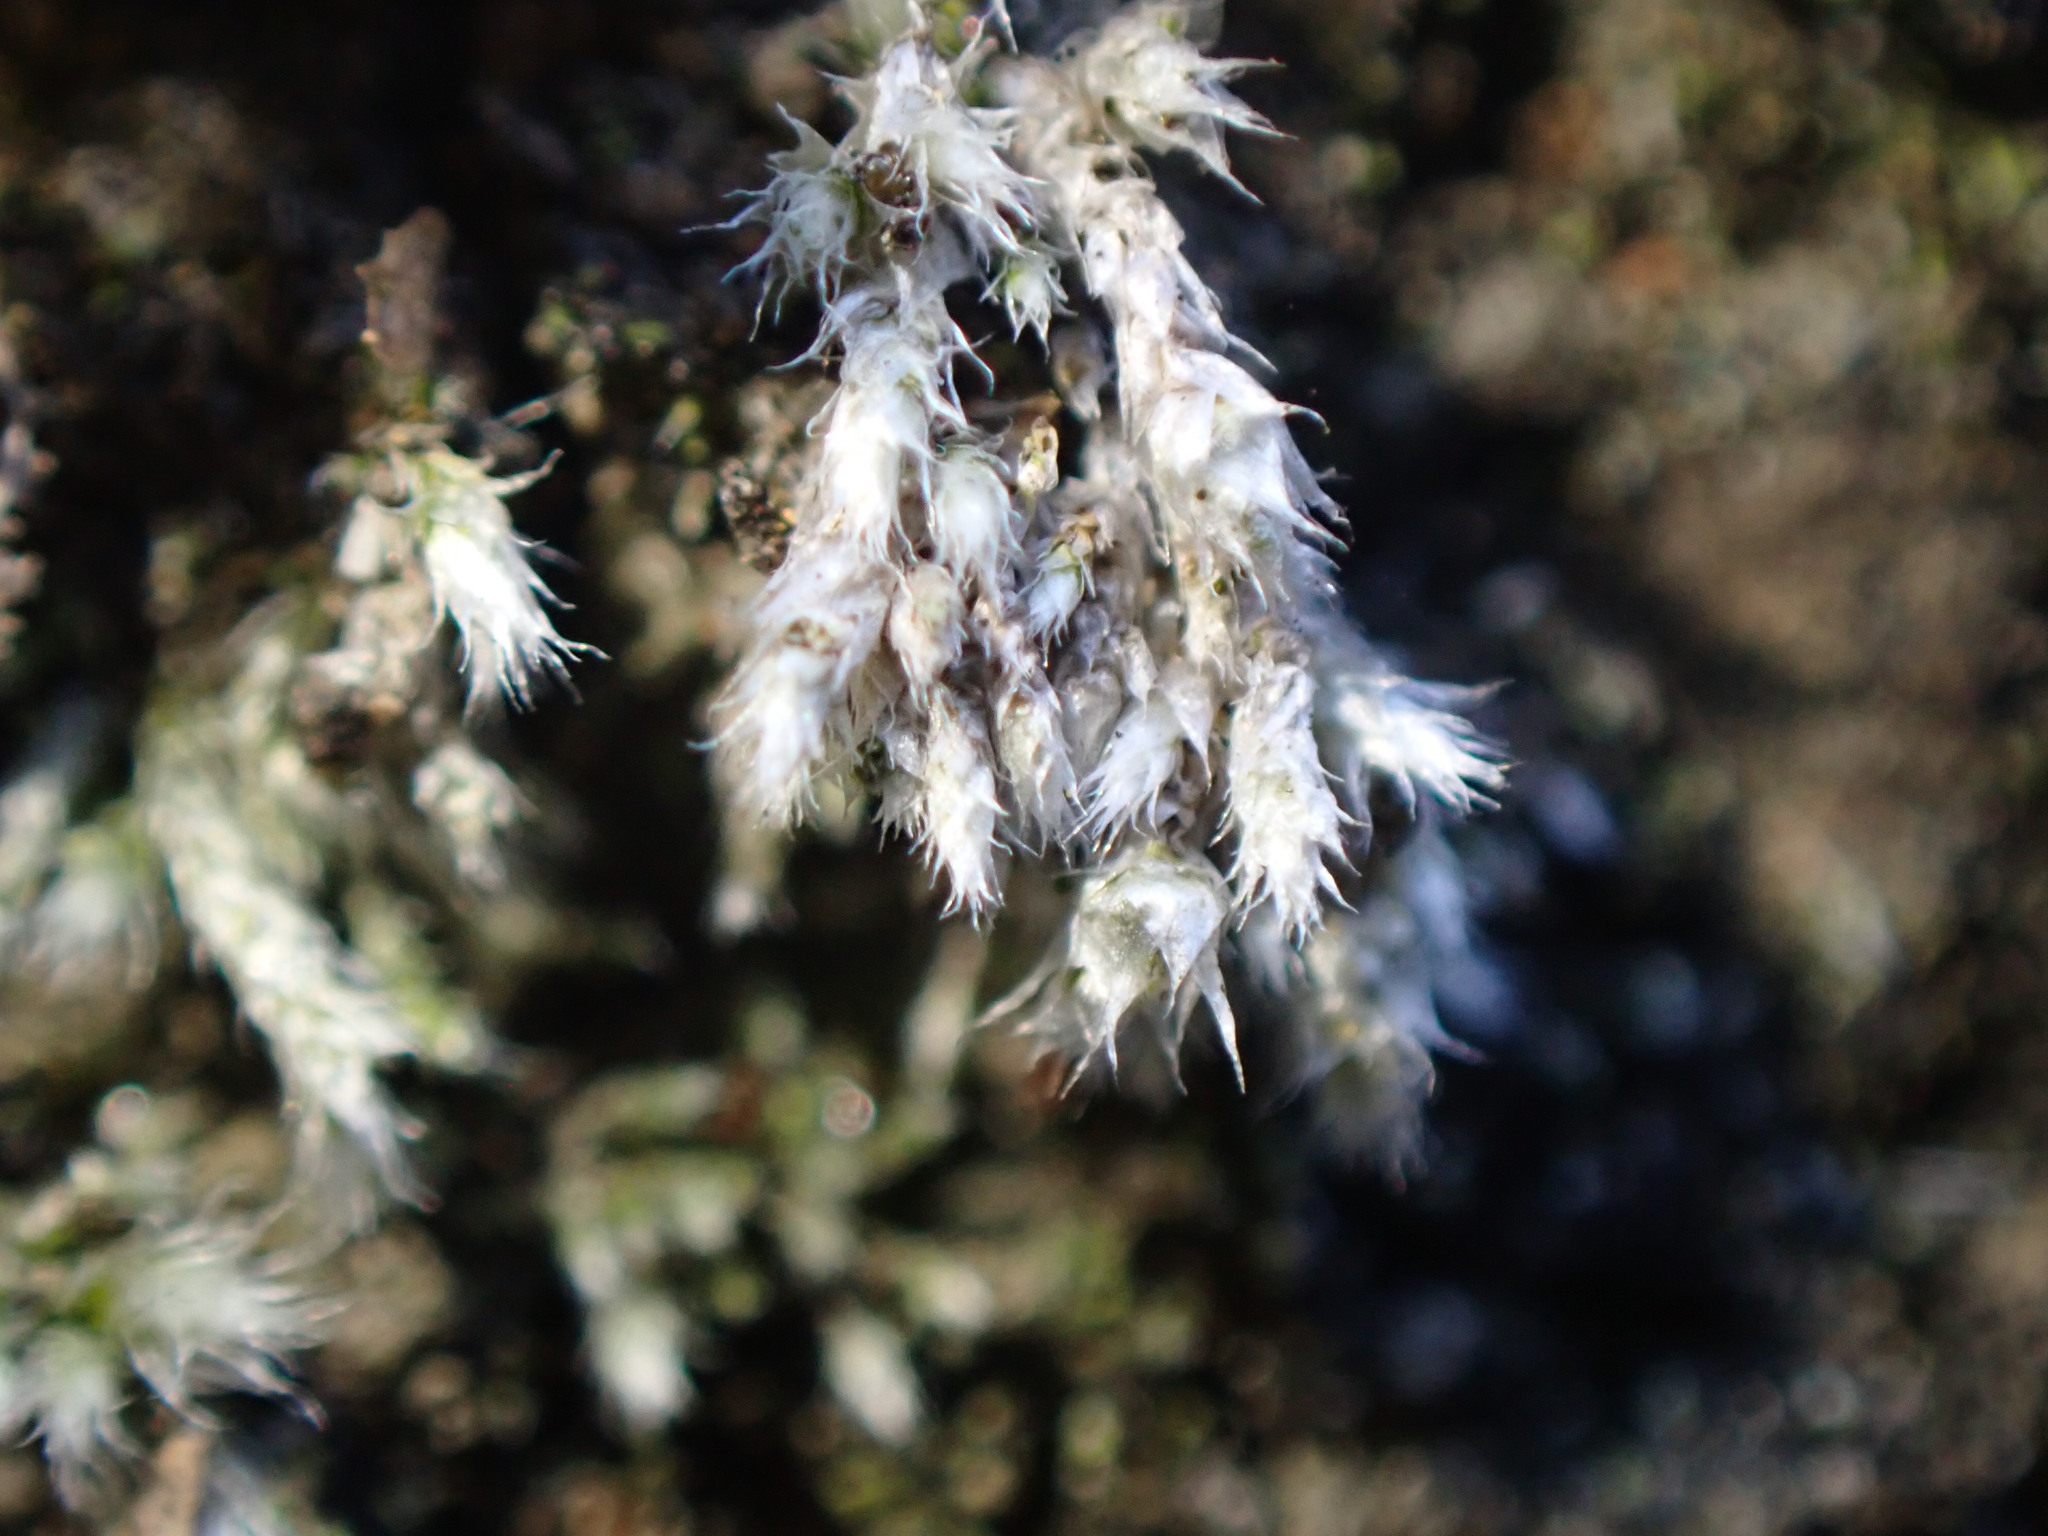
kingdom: Plantae
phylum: Bryophyta
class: Bryopsida
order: Bryales
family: Bryaceae
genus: Bryum
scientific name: Bryum argenteum
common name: Silver-moss
